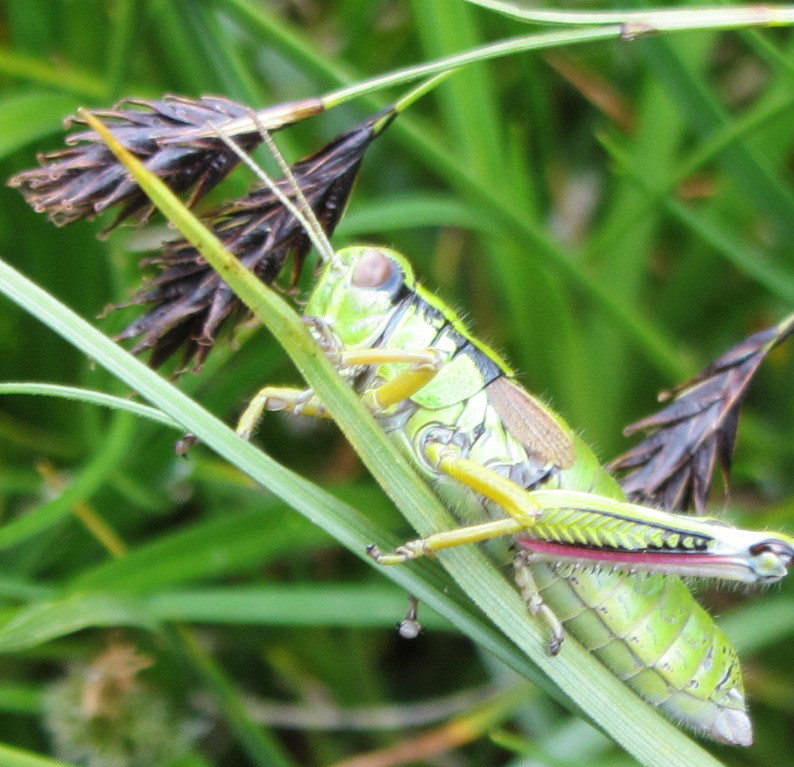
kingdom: Animalia
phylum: Arthropoda
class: Insecta
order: Orthoptera
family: Acrididae
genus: Miramella
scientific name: Miramella alpina
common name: Green mountain grasshopper
